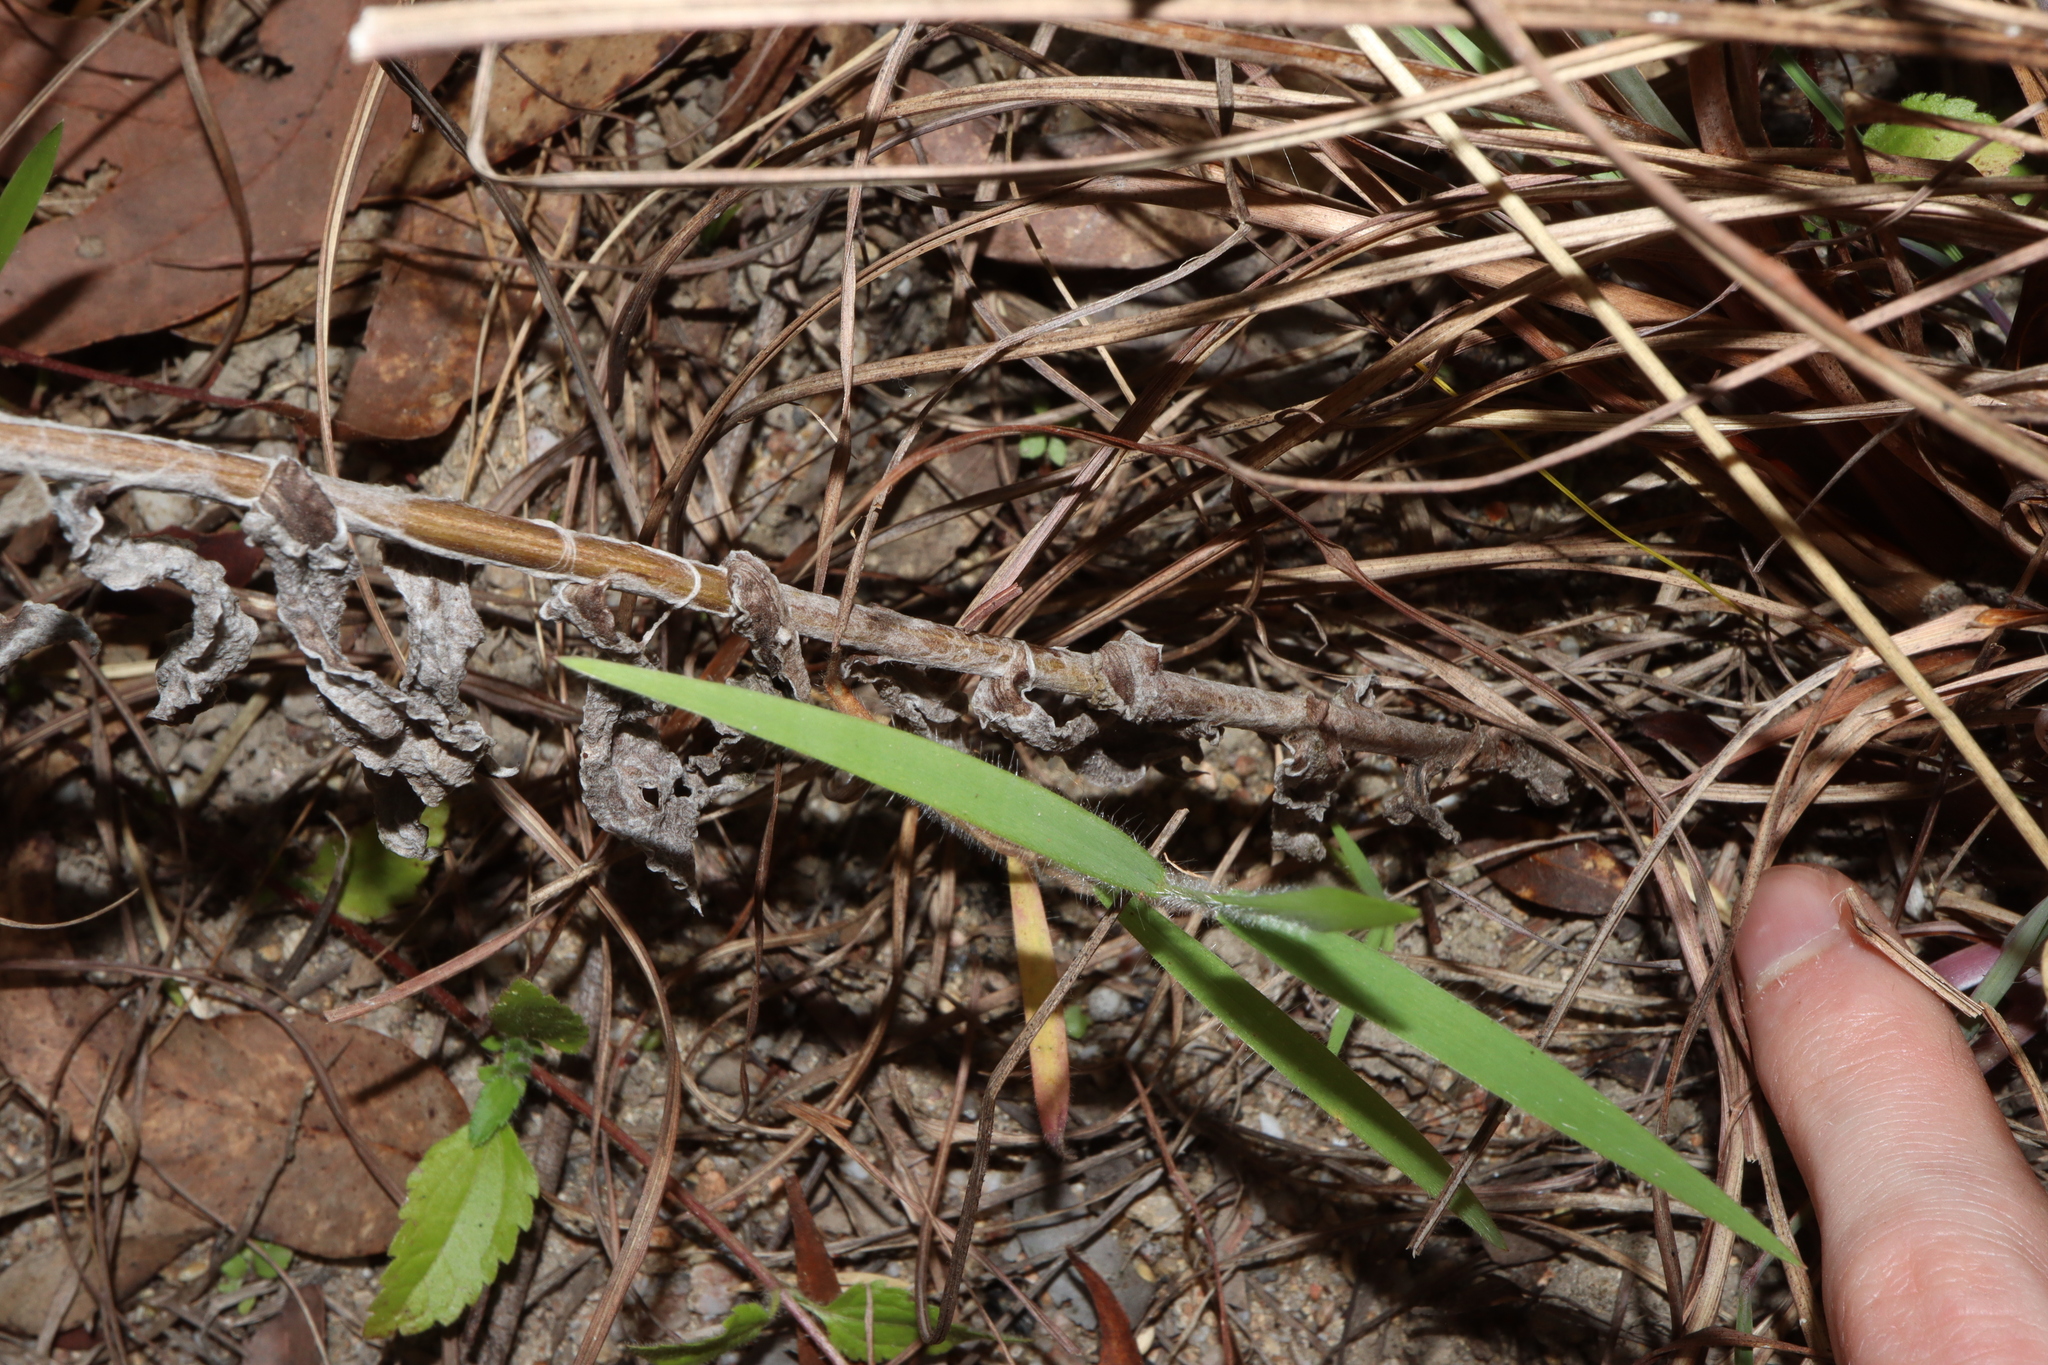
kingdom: Plantae
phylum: Tracheophyta
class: Magnoliopsida
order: Asterales
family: Asteraceae
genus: Coronidium
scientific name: Coronidium newcastlianum
